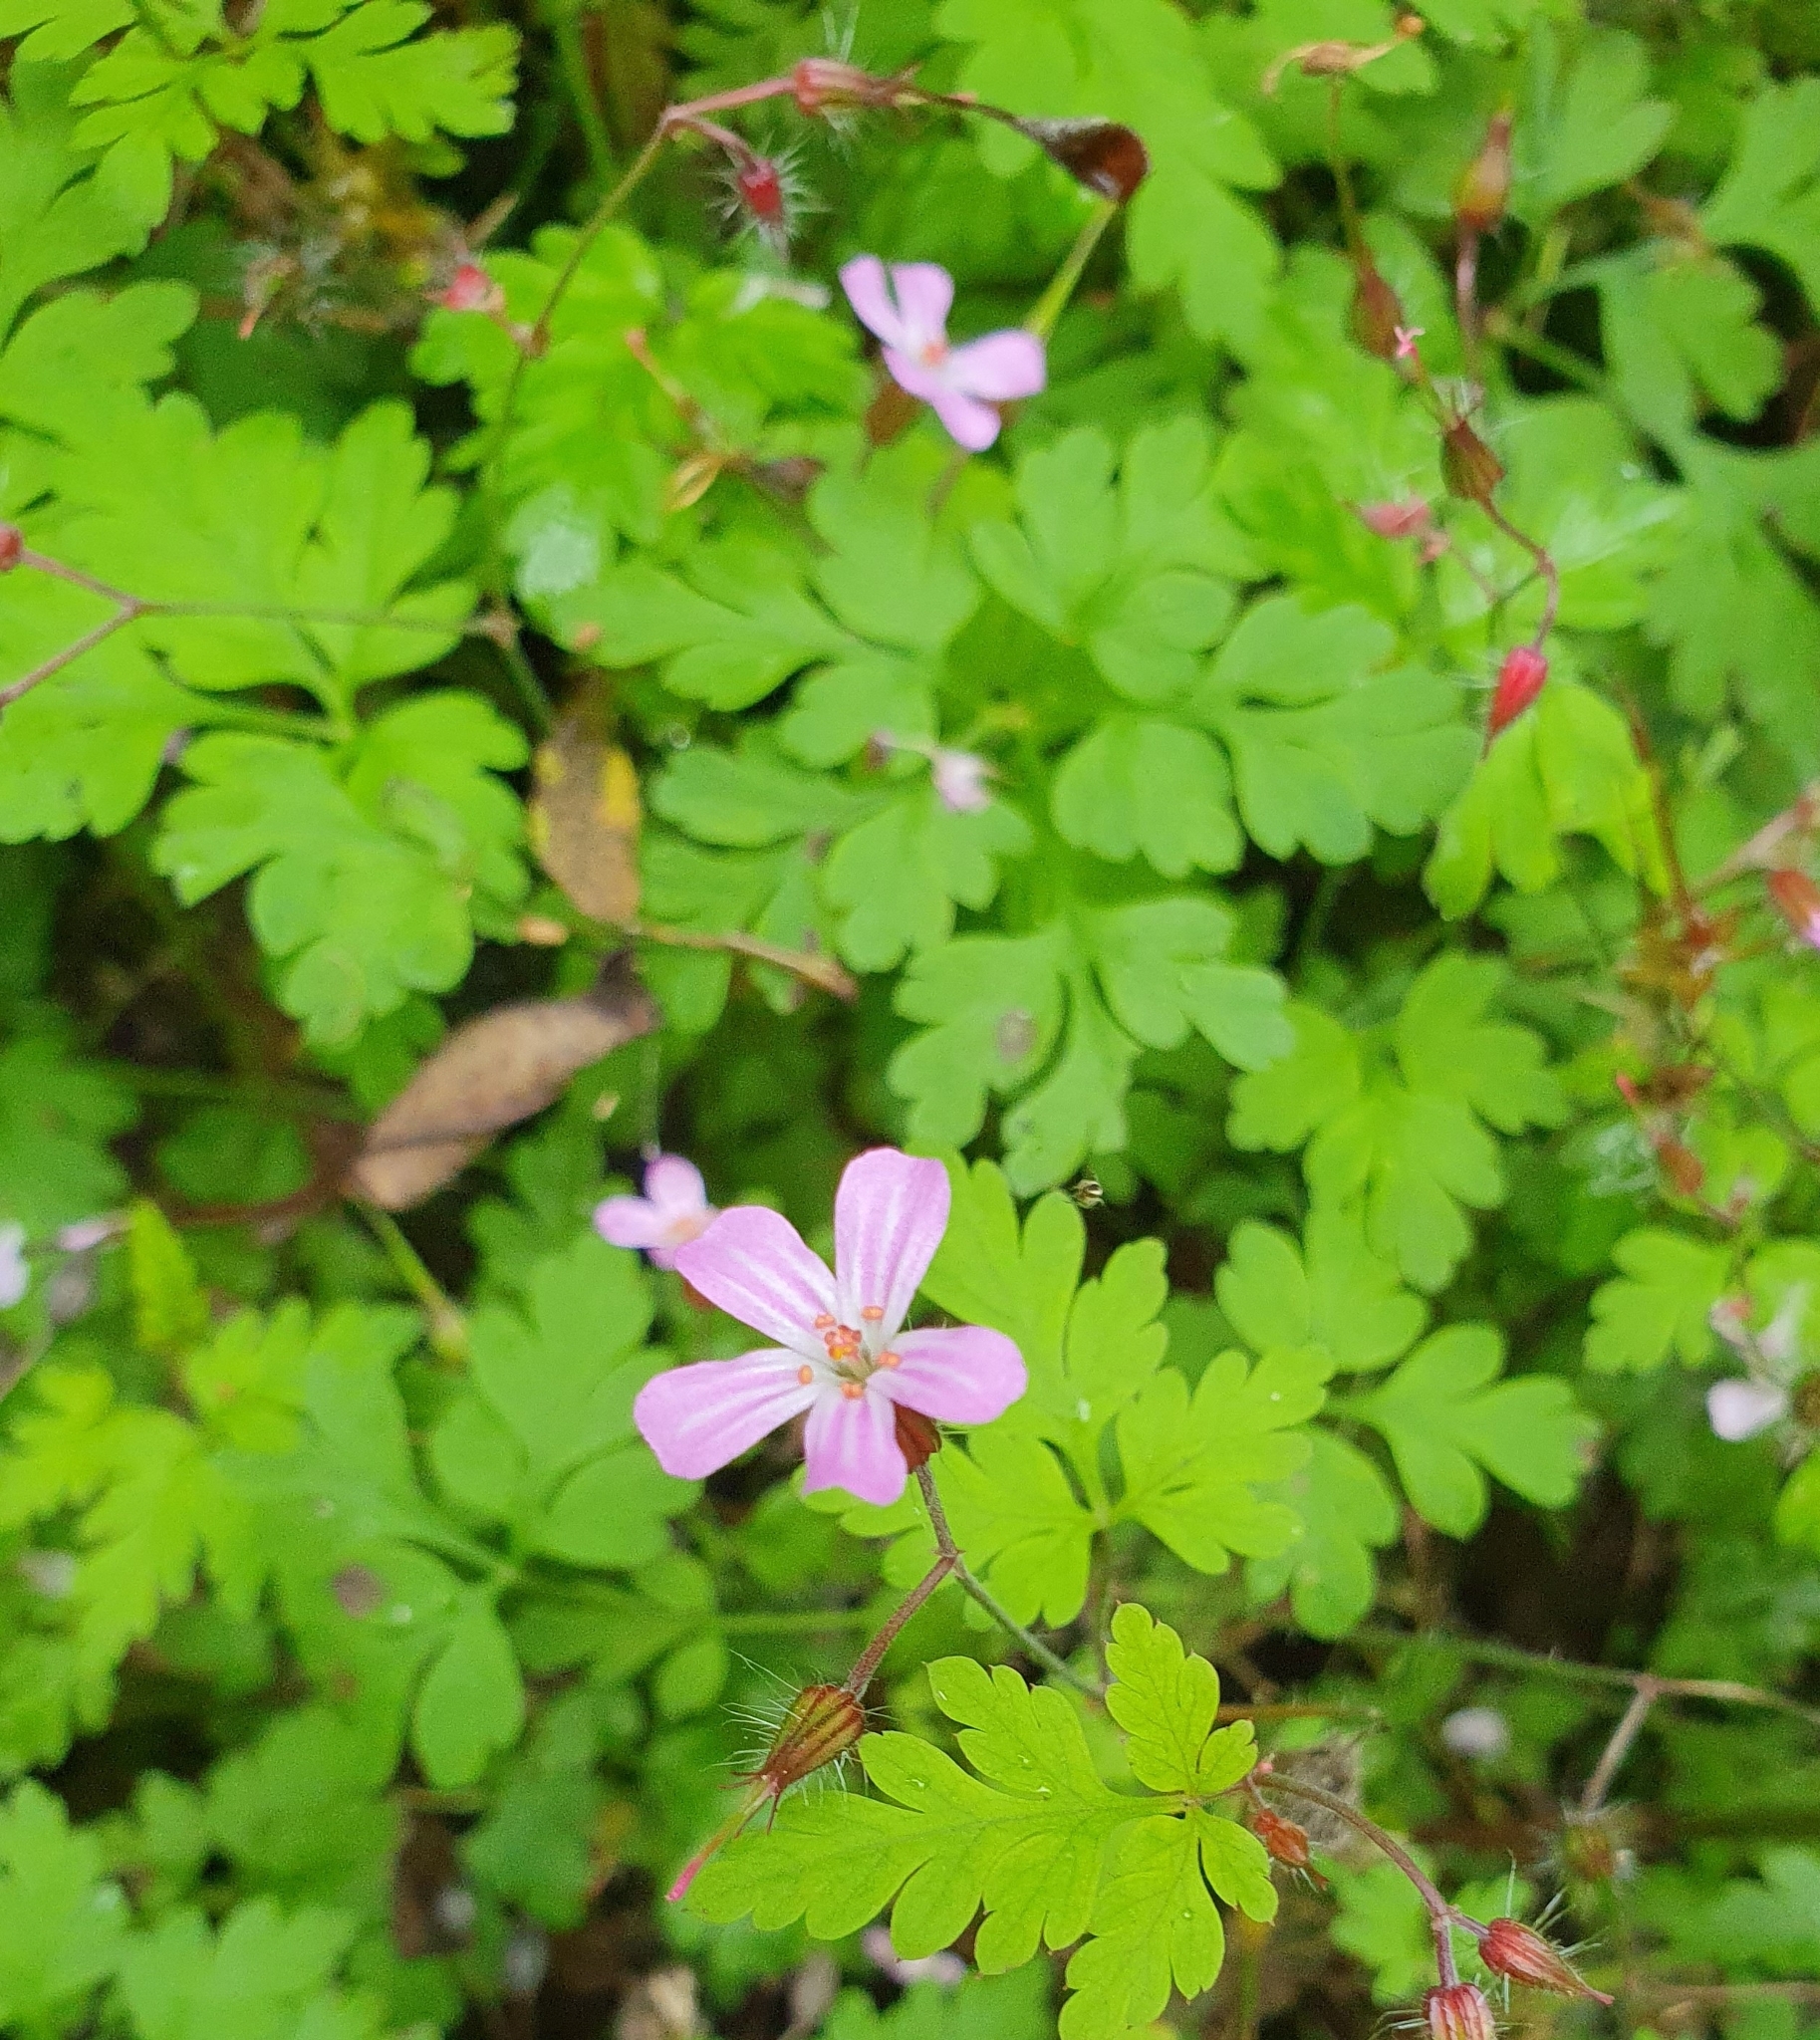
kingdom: Plantae
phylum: Tracheophyta
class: Magnoliopsida
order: Geraniales
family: Geraniaceae
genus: Geranium
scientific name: Geranium robertianum
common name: Herb-robert
